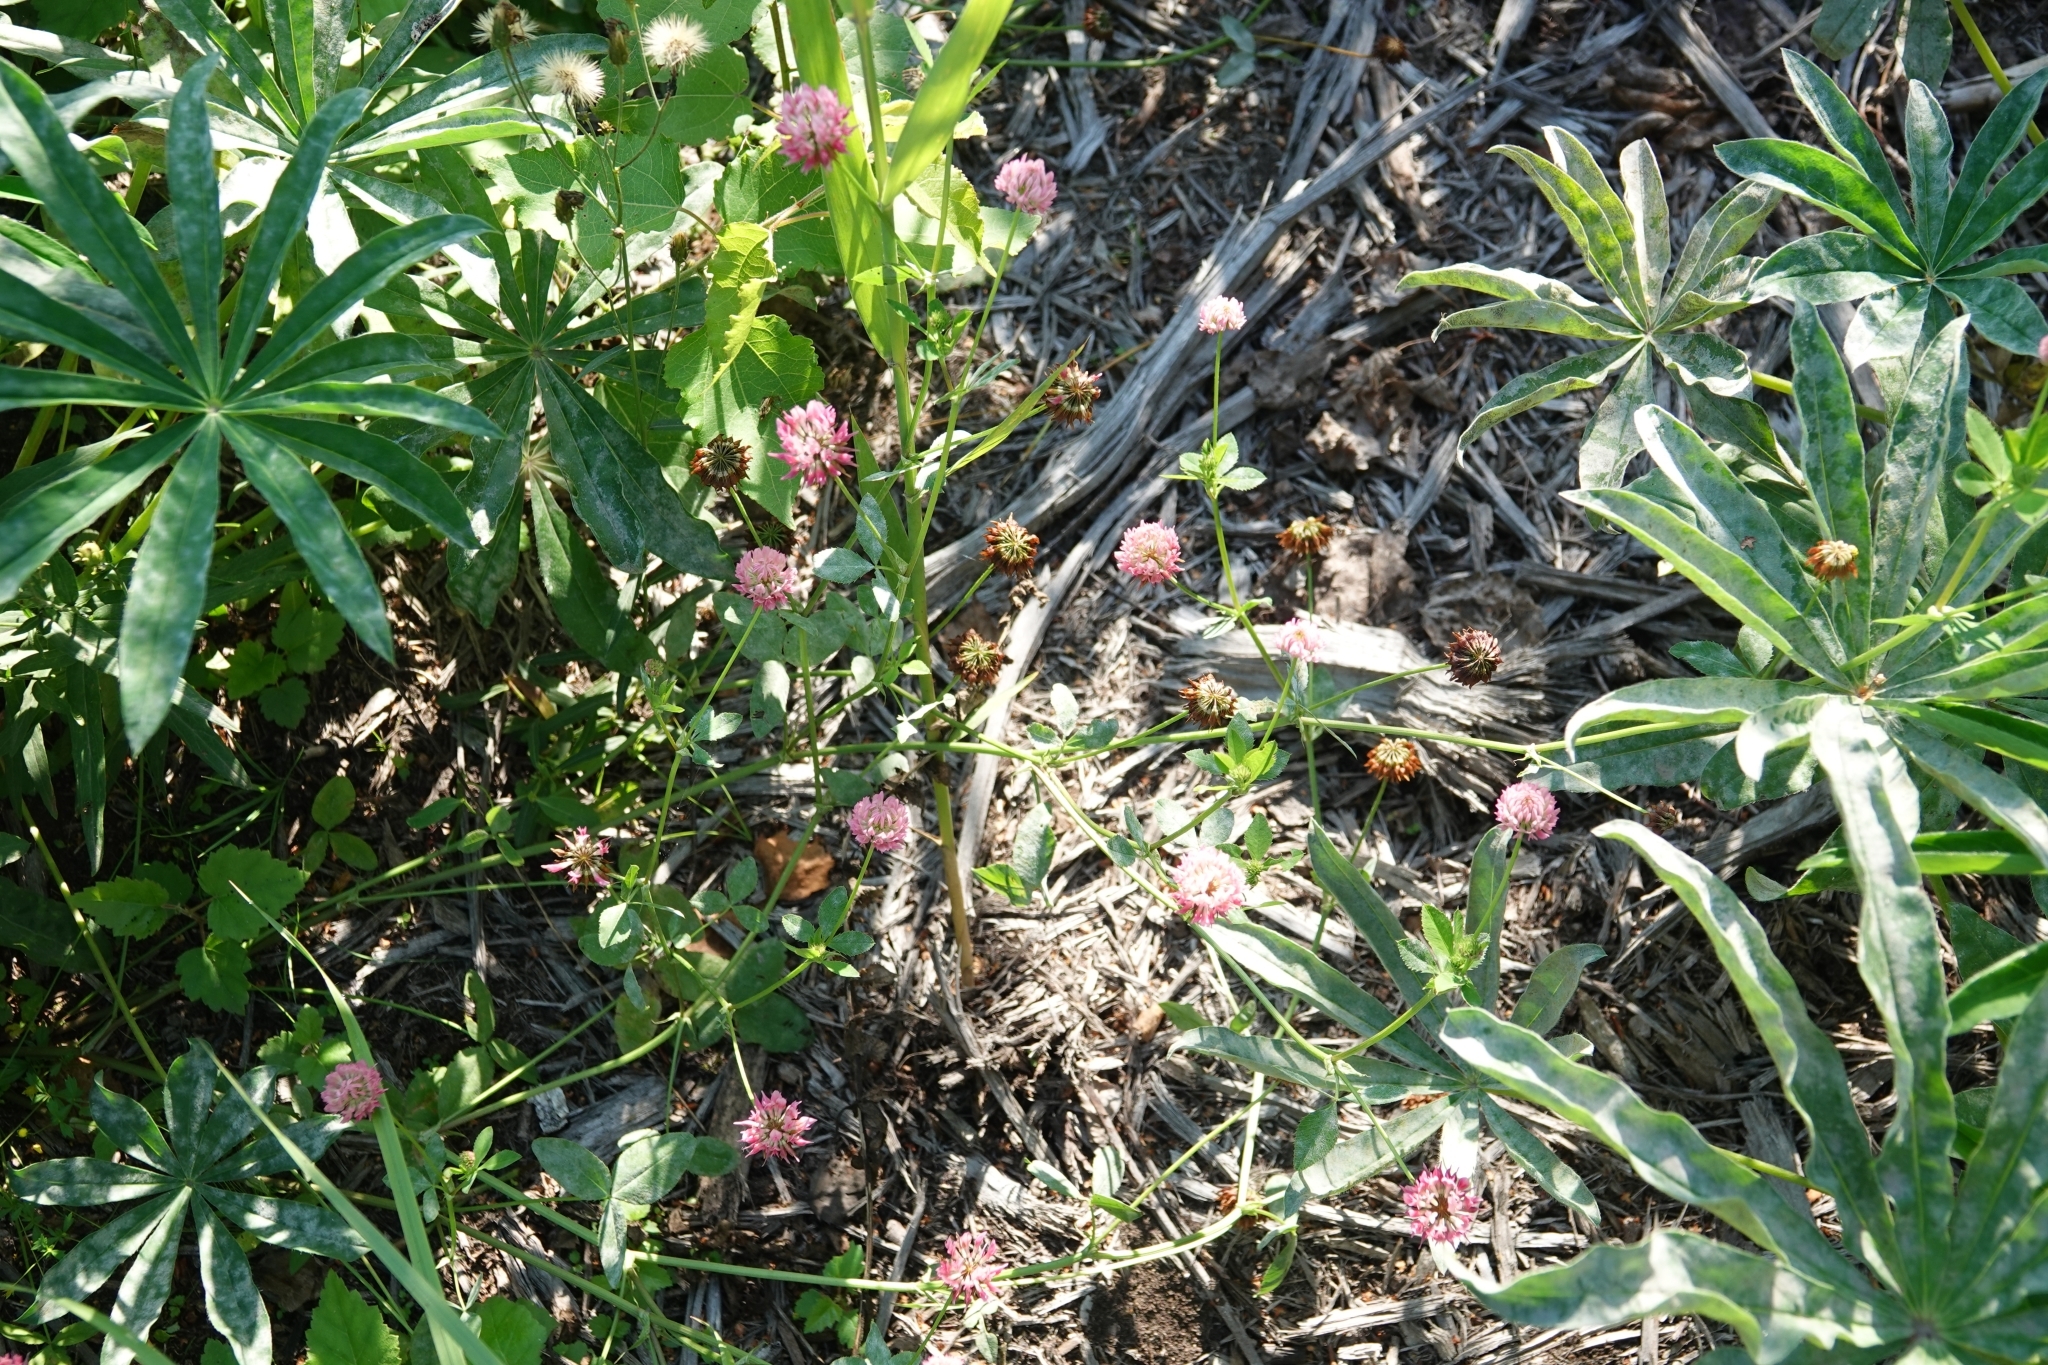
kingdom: Plantae
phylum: Tracheophyta
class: Magnoliopsida
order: Fabales
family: Fabaceae
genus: Trifolium
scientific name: Trifolium hybridum
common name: Alsike clover
